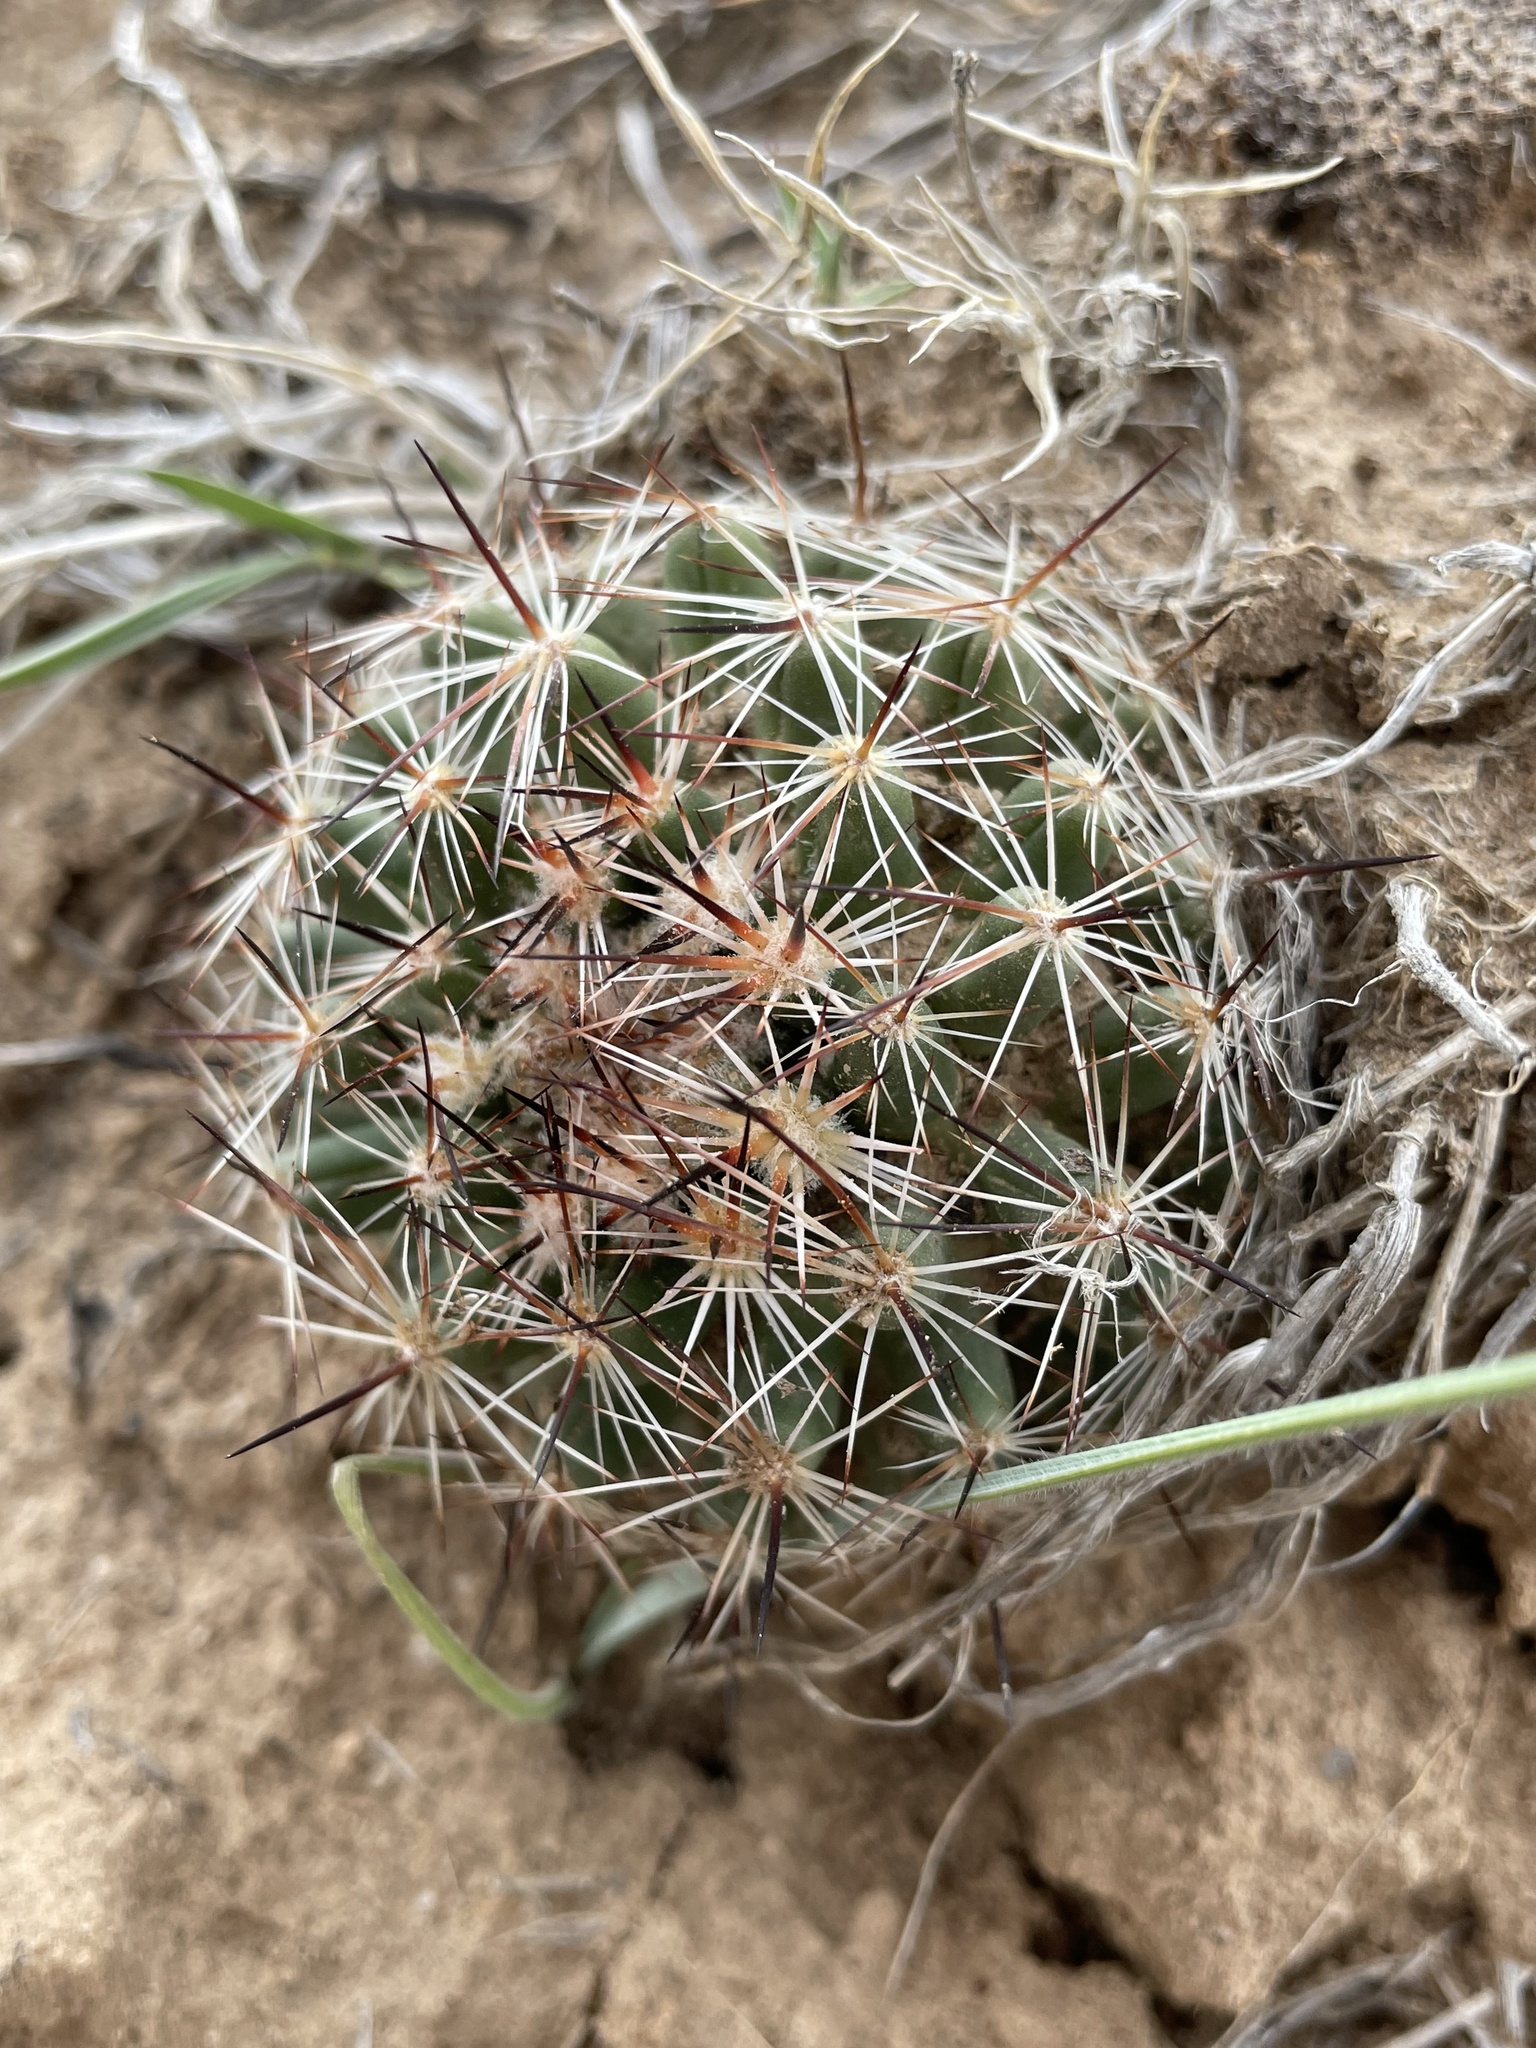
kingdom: Plantae
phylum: Tracheophyta
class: Magnoliopsida
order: Caryophyllales
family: Cactaceae
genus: Pelecyphora
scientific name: Pelecyphora vivipara
